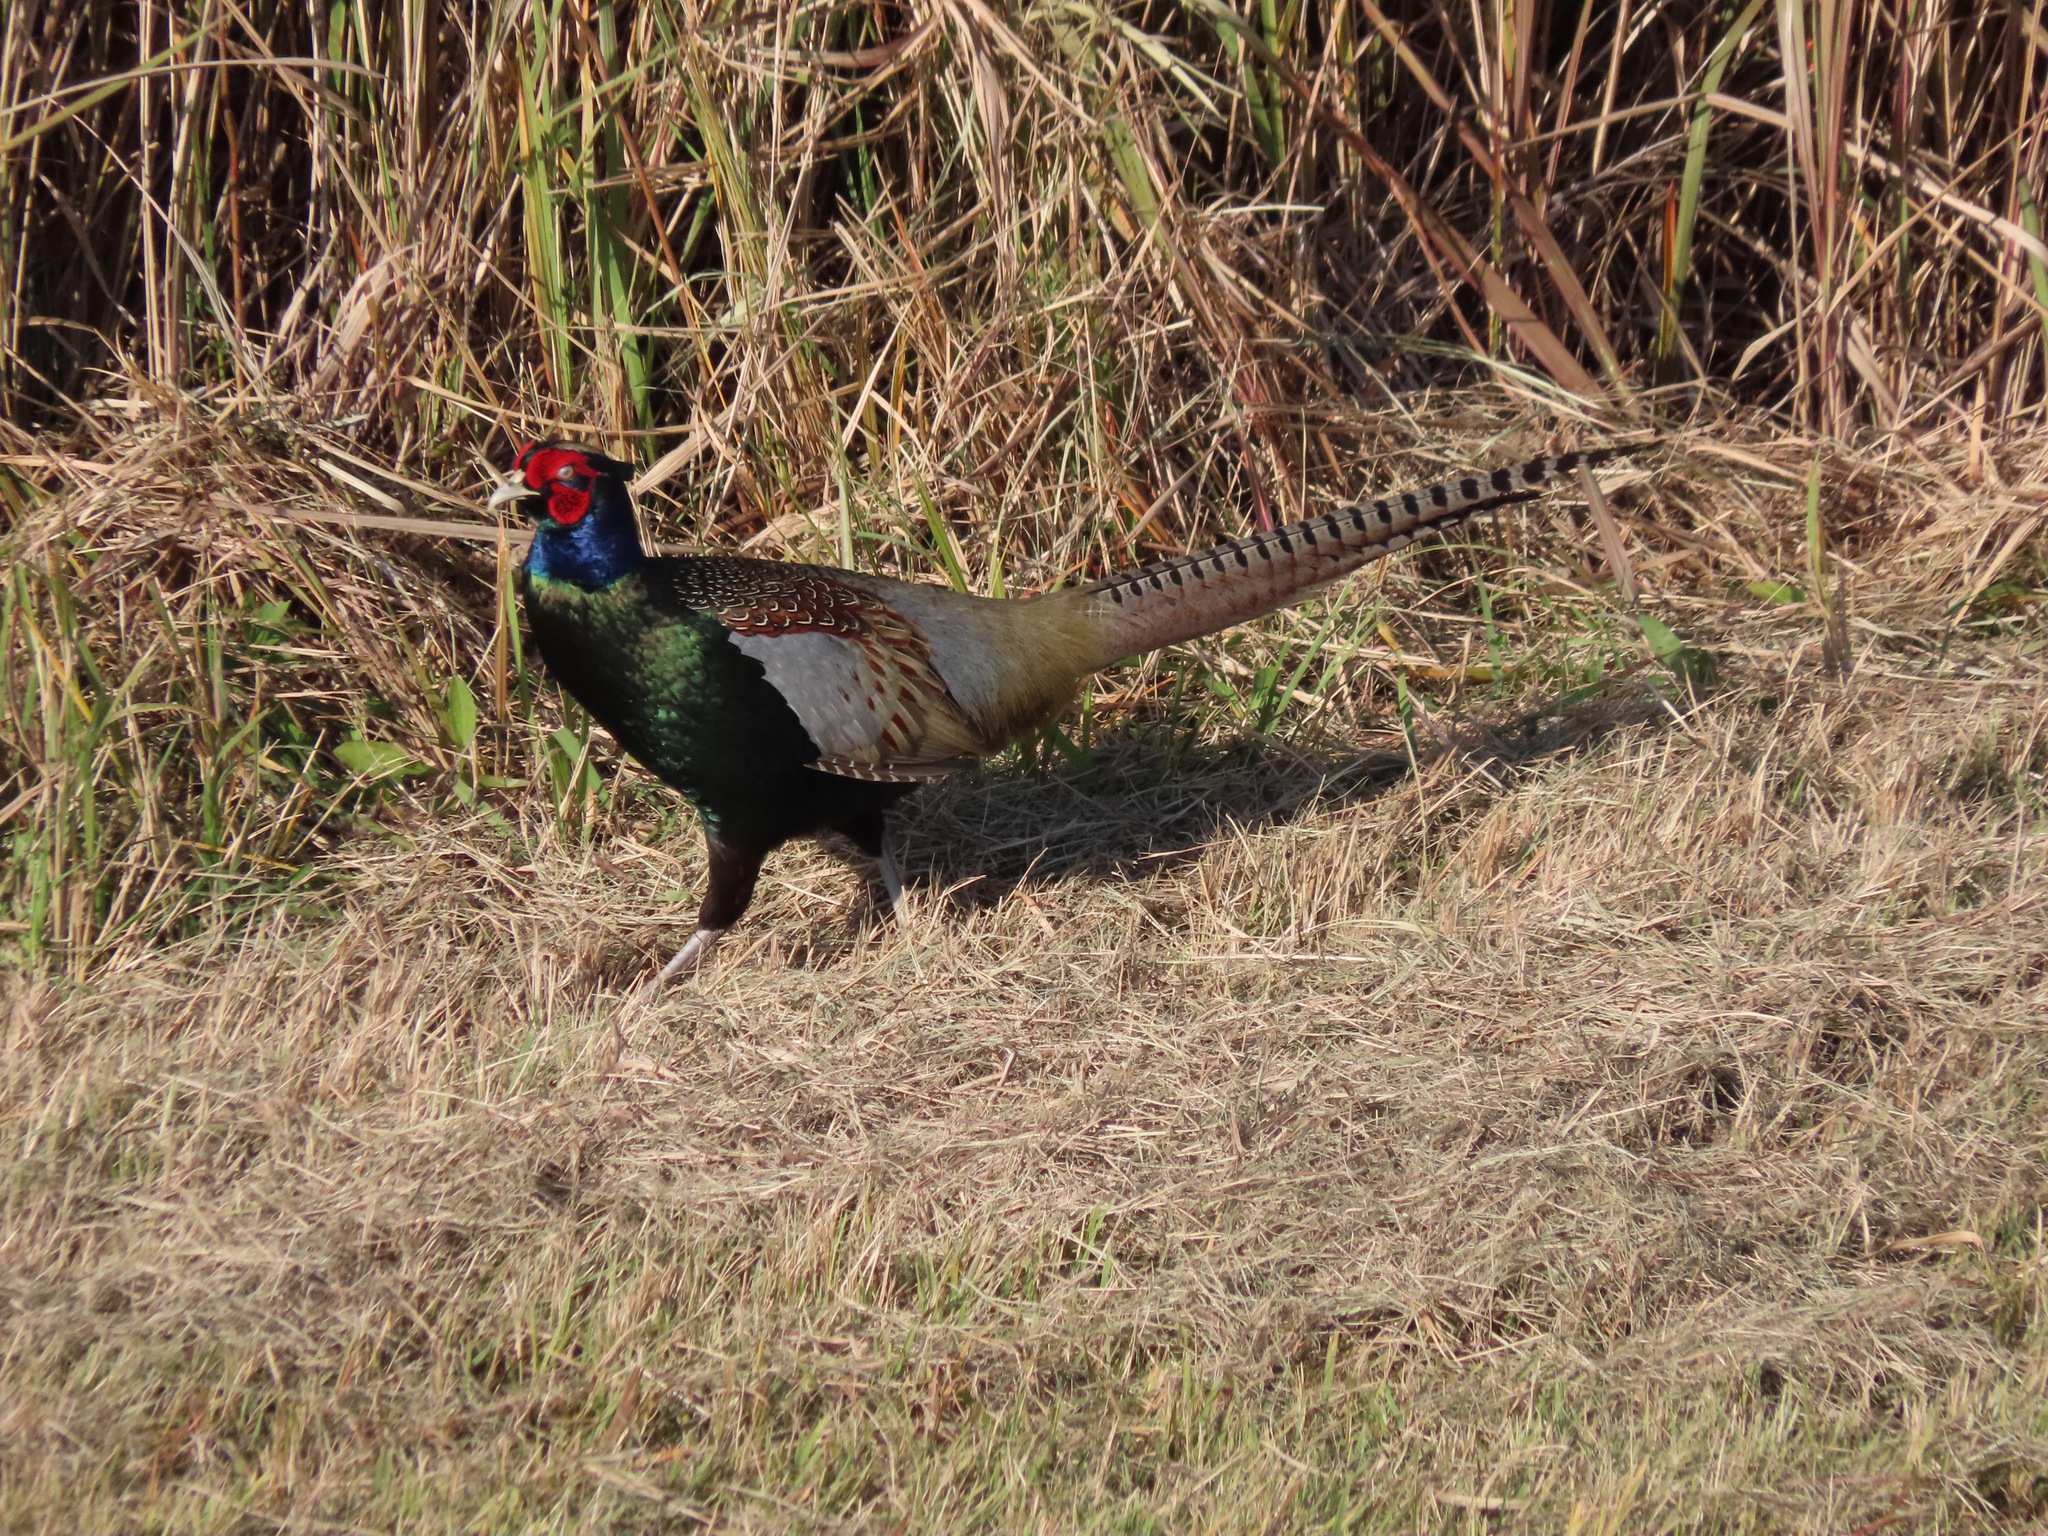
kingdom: Animalia
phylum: Chordata
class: Aves
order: Galliformes
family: Phasianidae
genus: Phasianus
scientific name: Phasianus versicolor
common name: Green pheasant
